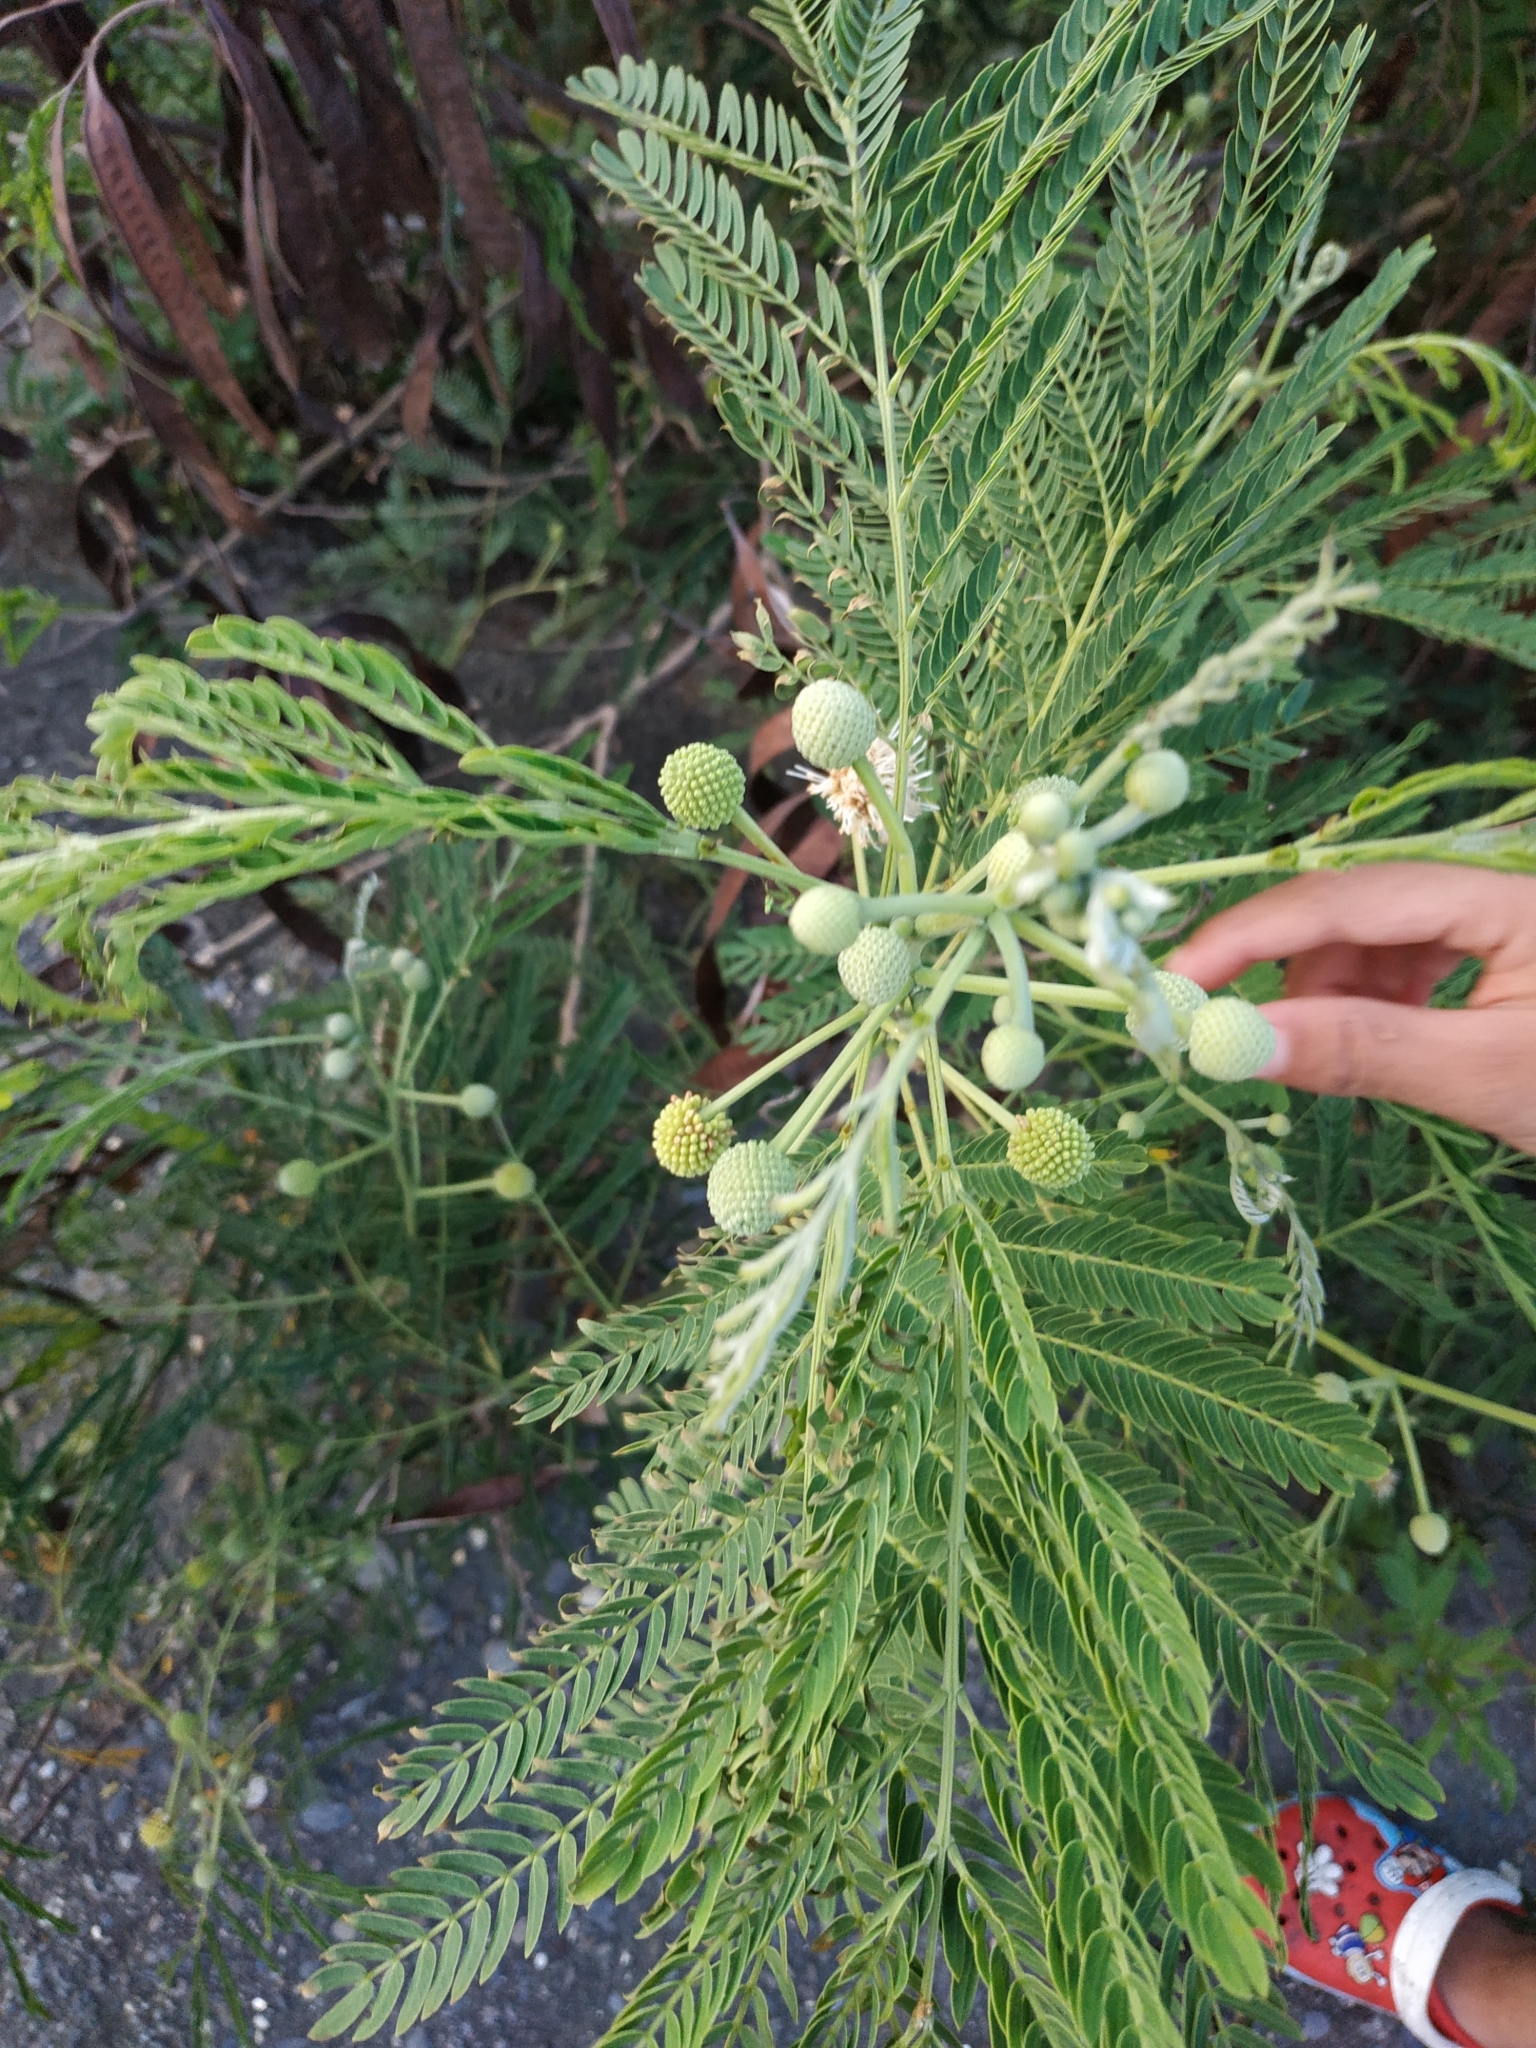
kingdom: Plantae
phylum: Tracheophyta
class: Magnoliopsida
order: Fabales
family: Fabaceae
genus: Leucaena
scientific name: Leucaena leucocephala
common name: White leadtree
